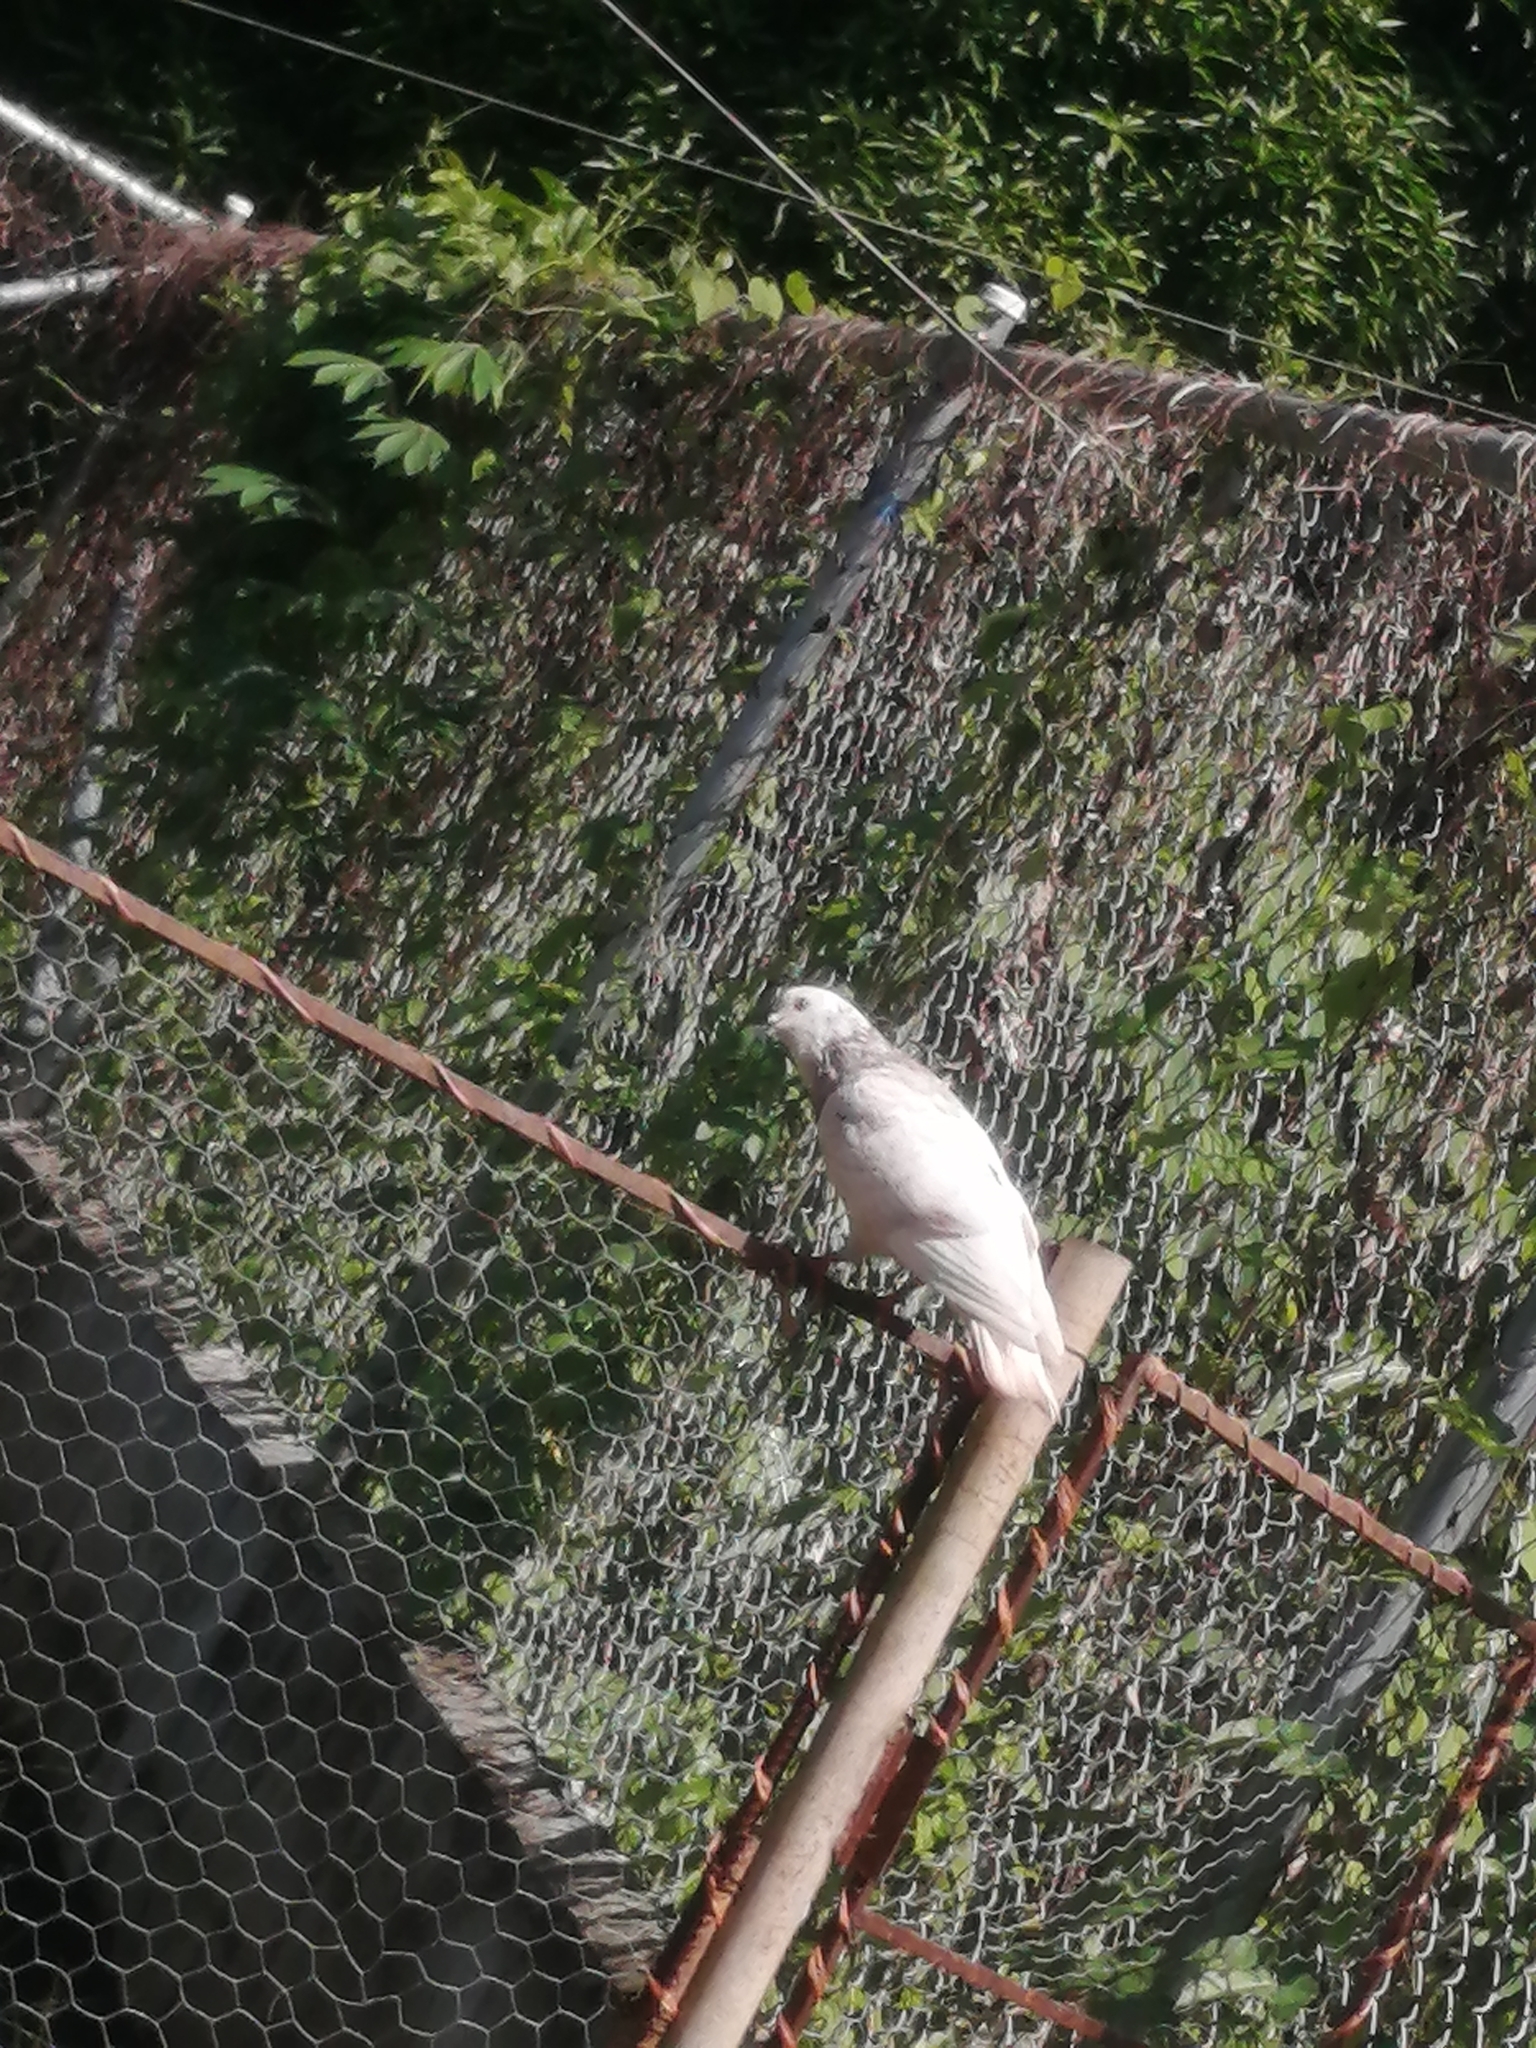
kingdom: Animalia
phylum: Chordata
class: Aves
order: Columbiformes
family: Columbidae
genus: Columba
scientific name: Columba livia
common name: Rock pigeon
